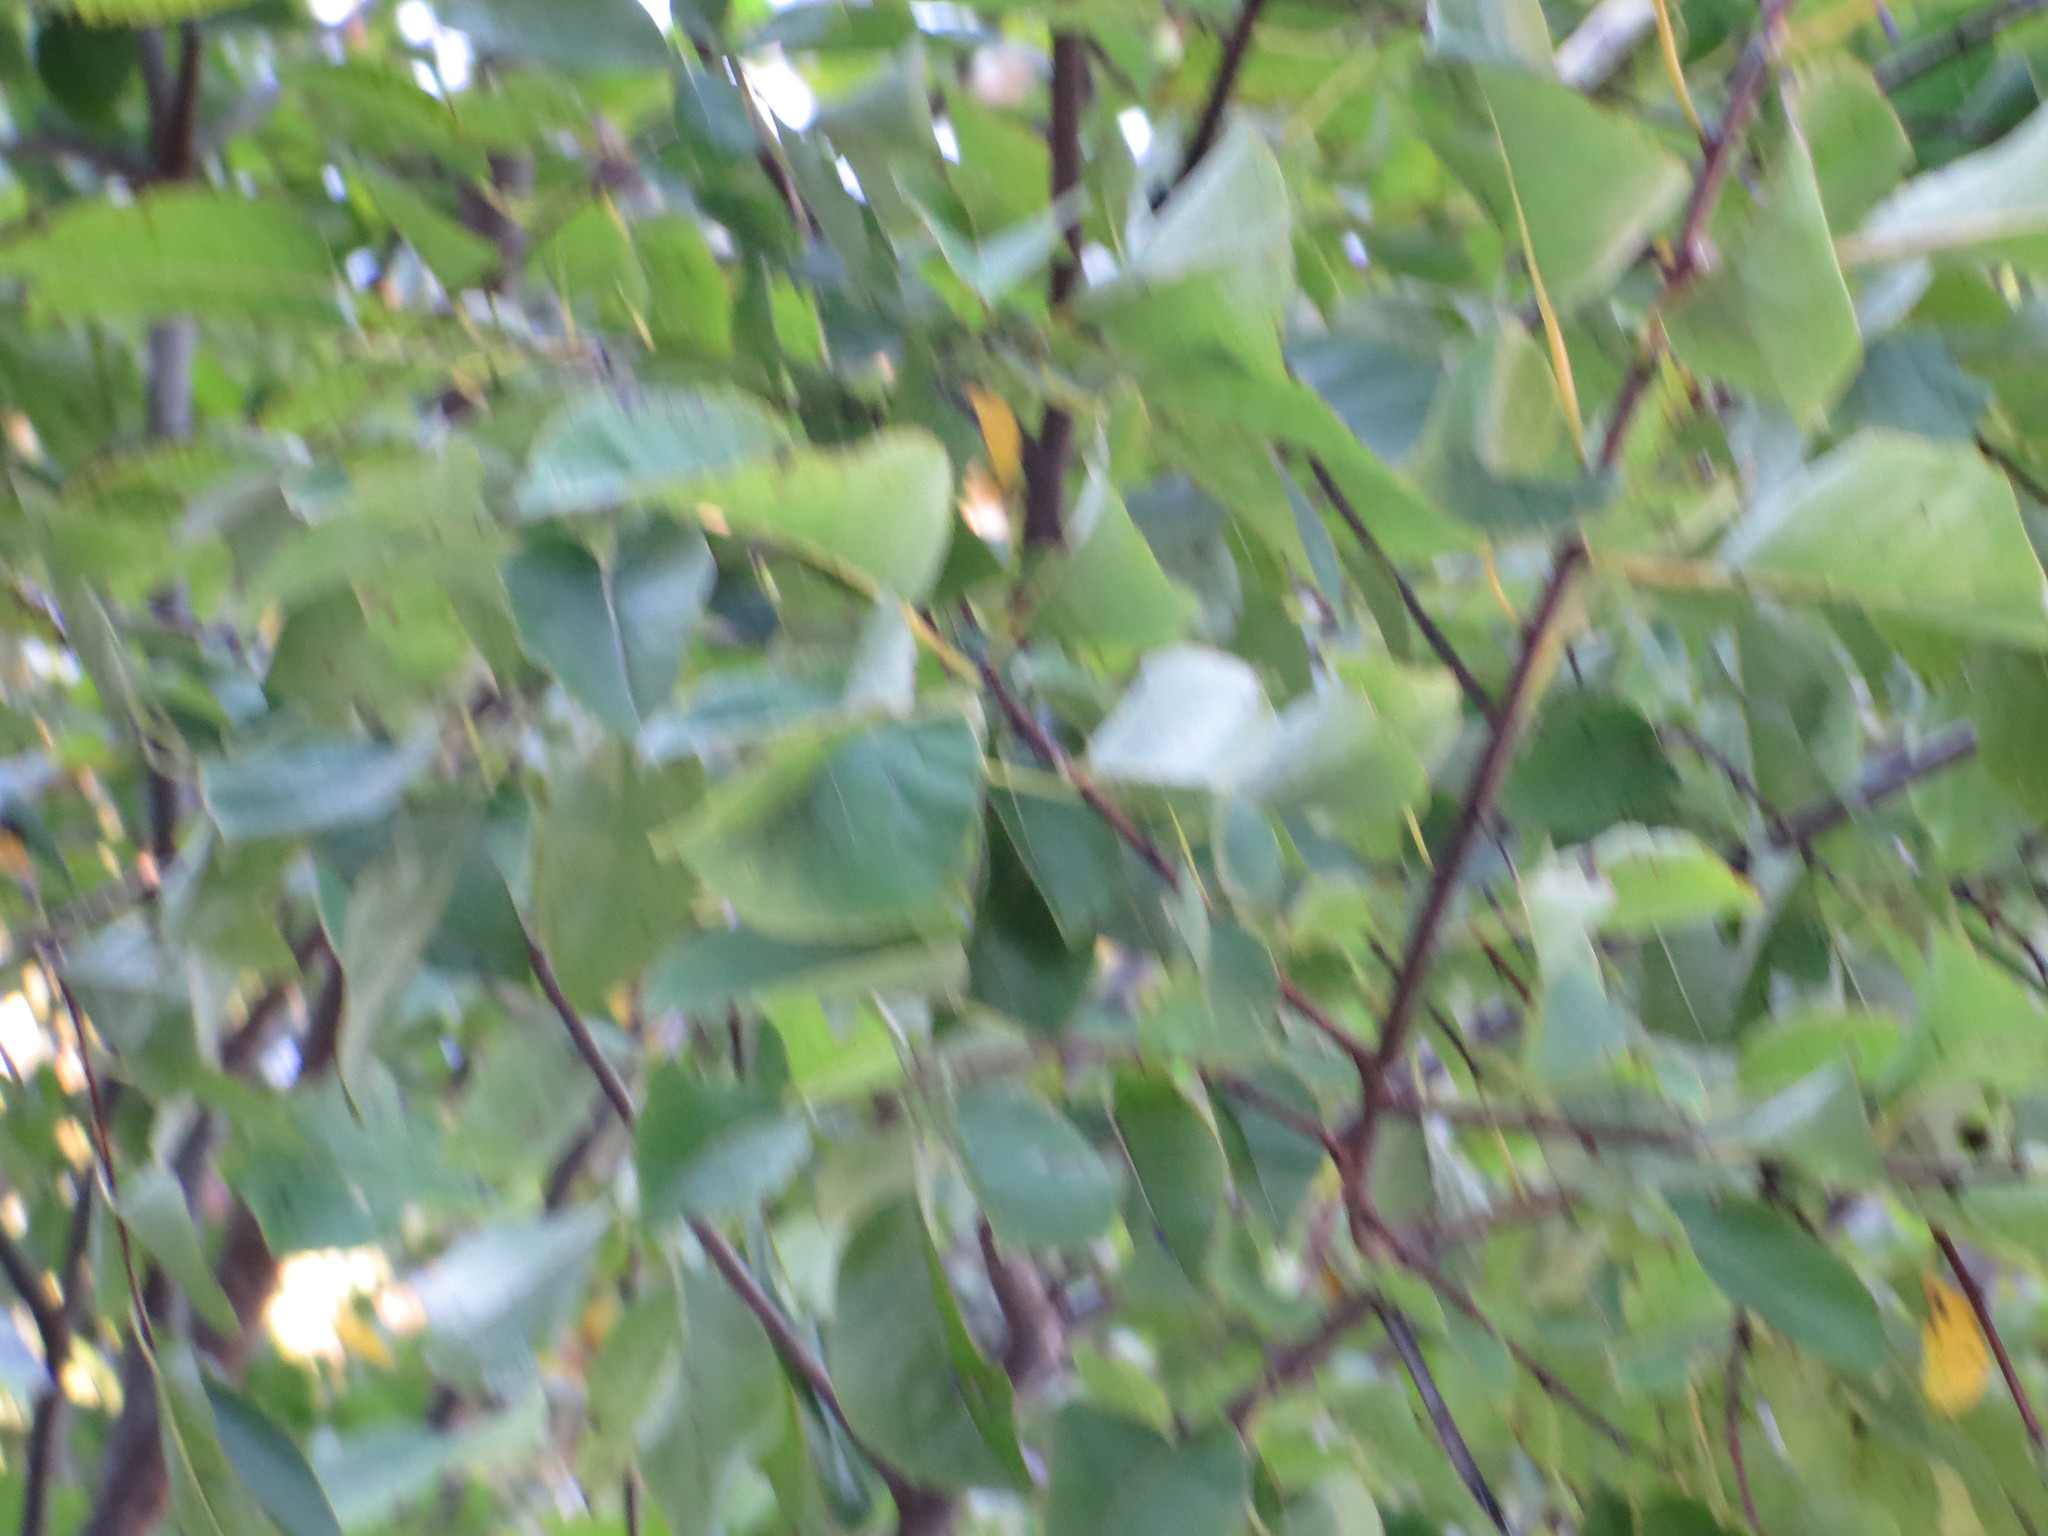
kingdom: Plantae
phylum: Tracheophyta
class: Magnoliopsida
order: Ericales
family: Ebenaceae
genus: Diospyros
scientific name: Diospyros virginiana
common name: Persimmon
